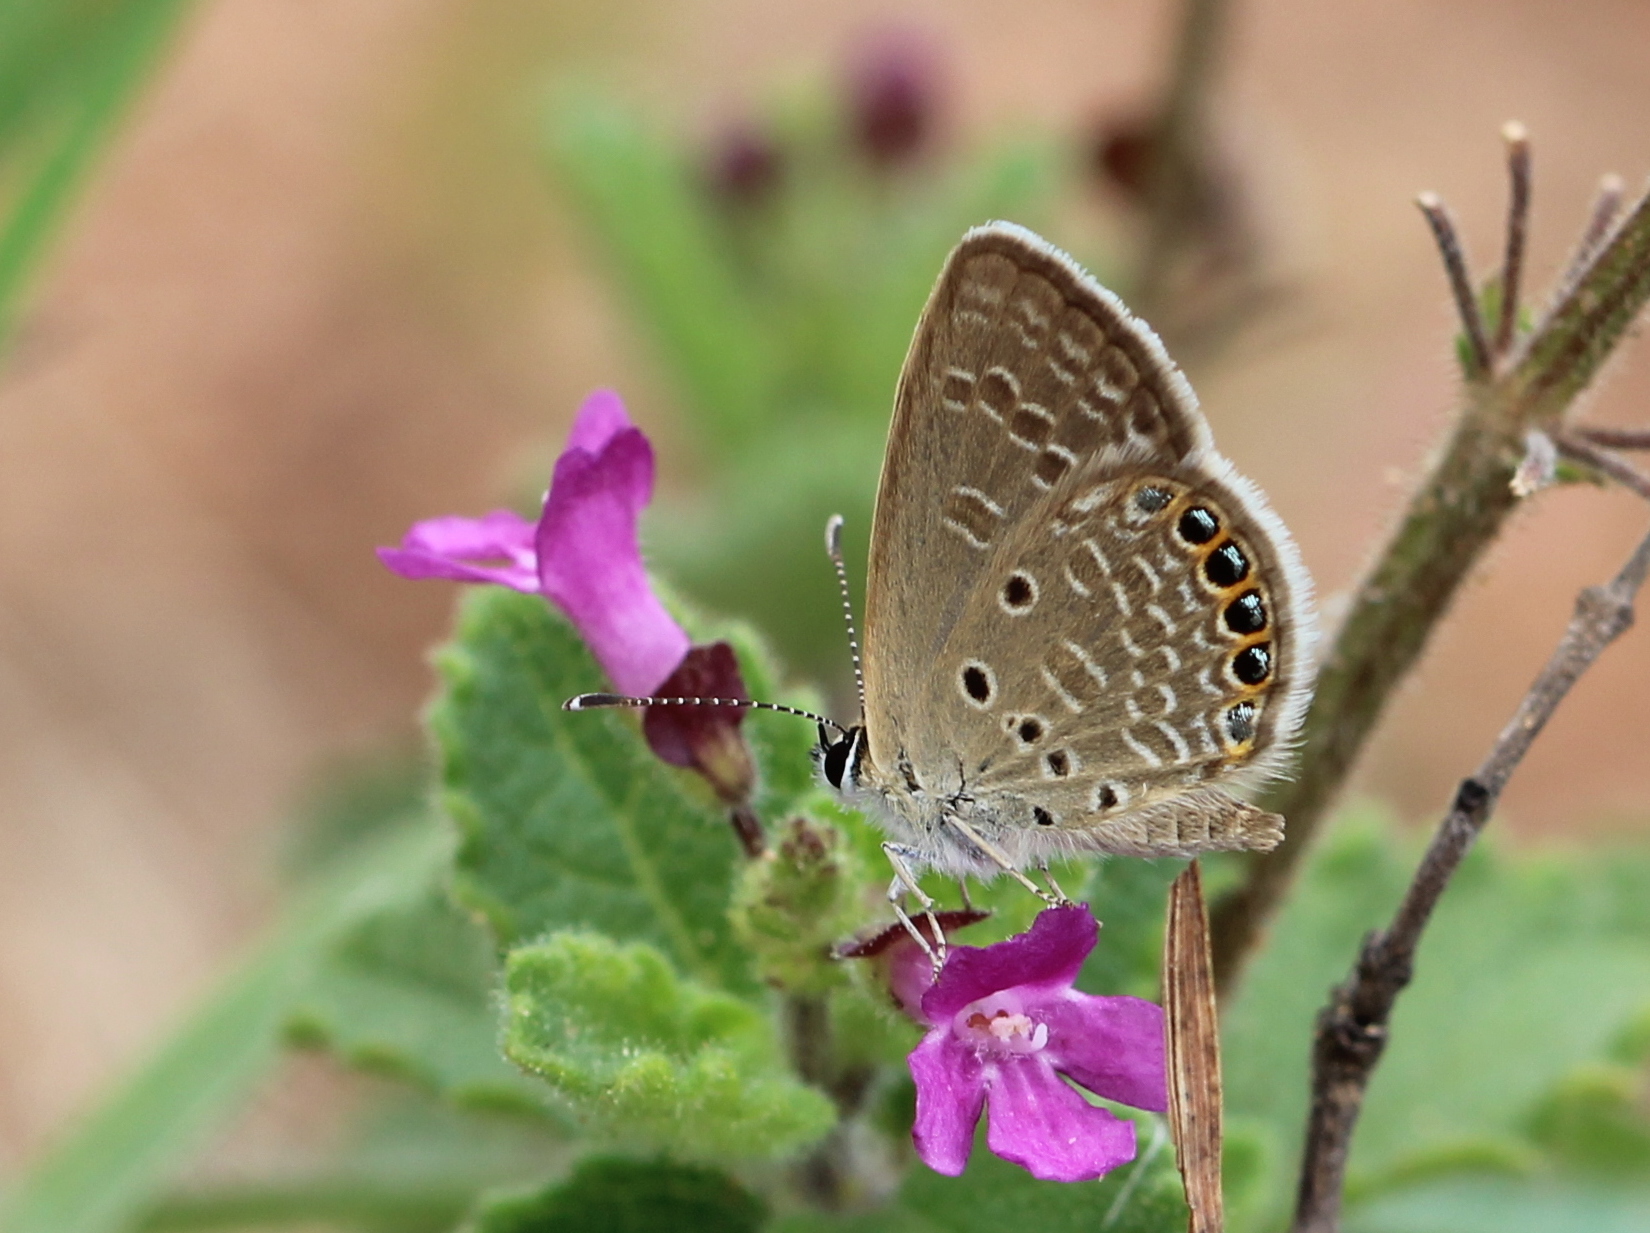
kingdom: Animalia
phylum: Arthropoda
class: Insecta
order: Lepidoptera
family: Lycaenidae
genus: Freyeria
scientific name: Freyeria putli
